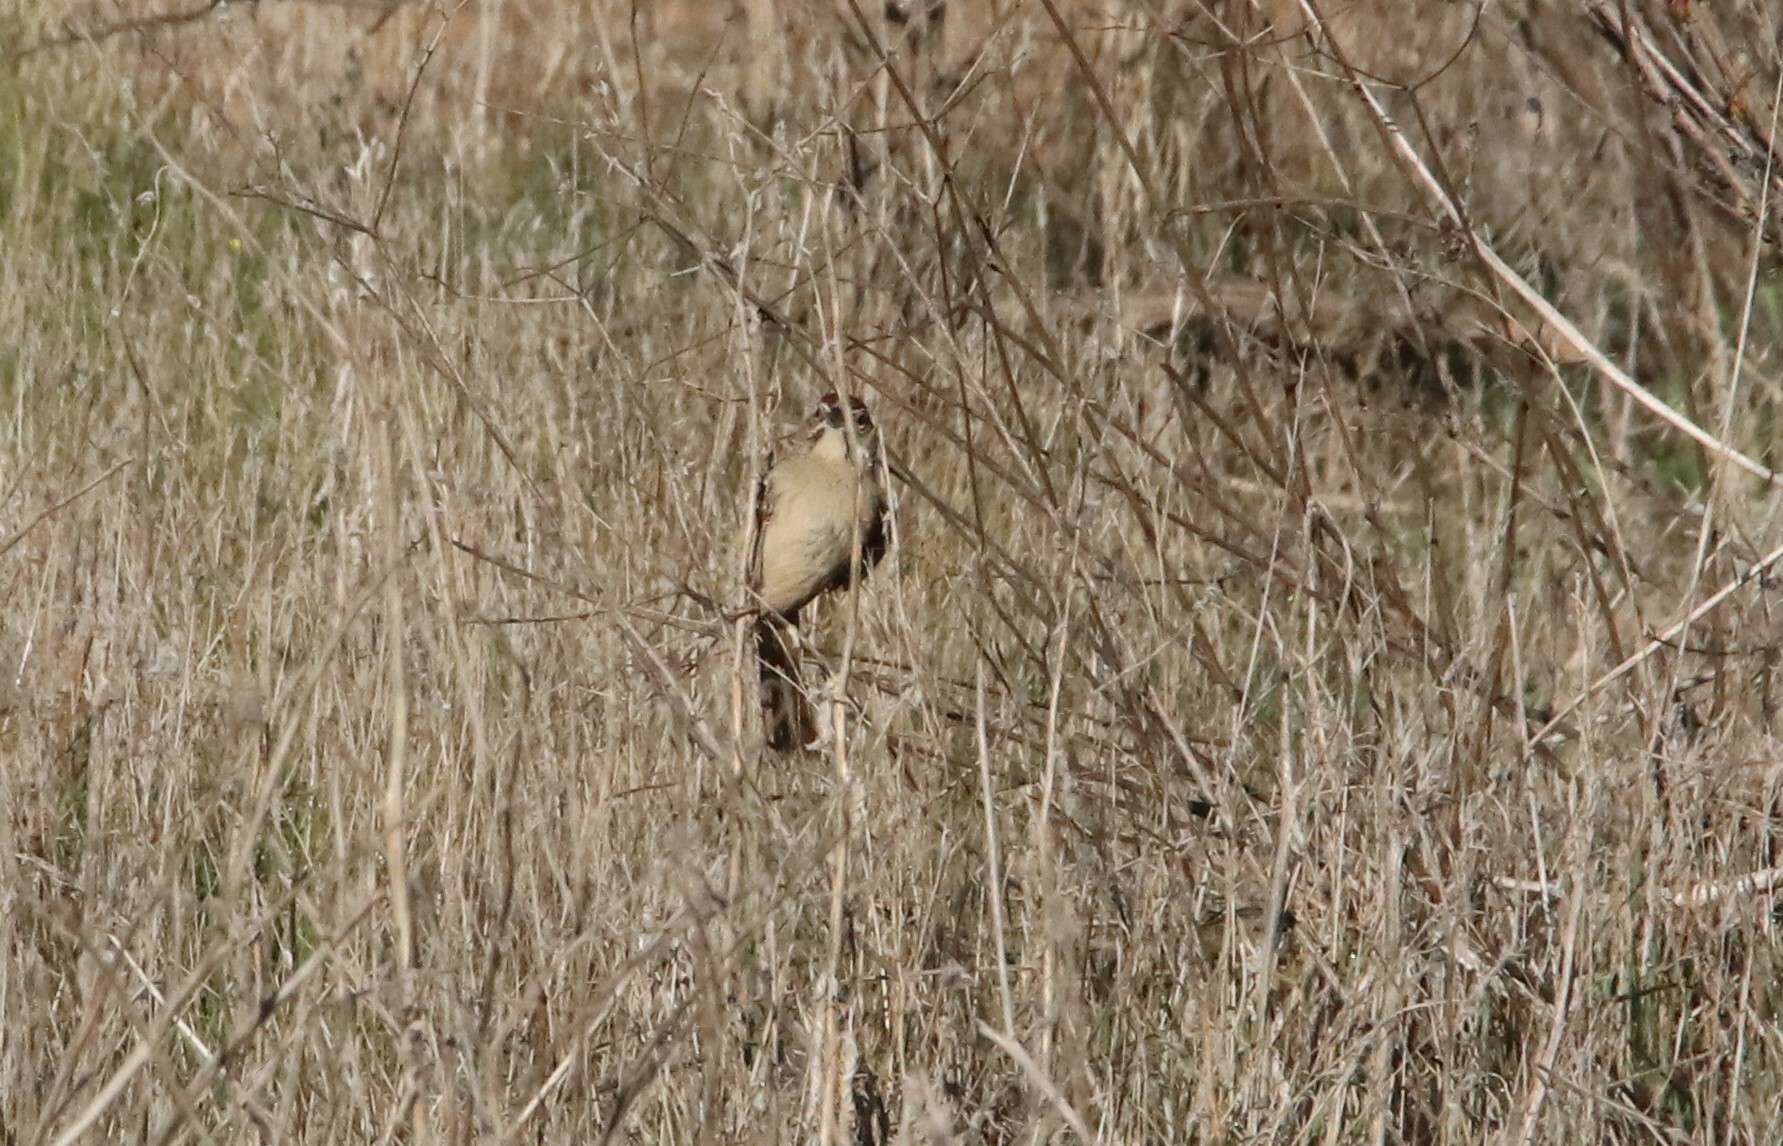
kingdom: Animalia
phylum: Chordata
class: Aves
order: Passeriformes
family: Passerellidae
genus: Aimophila
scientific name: Aimophila ruficeps
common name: Rufous-crowned sparrow
